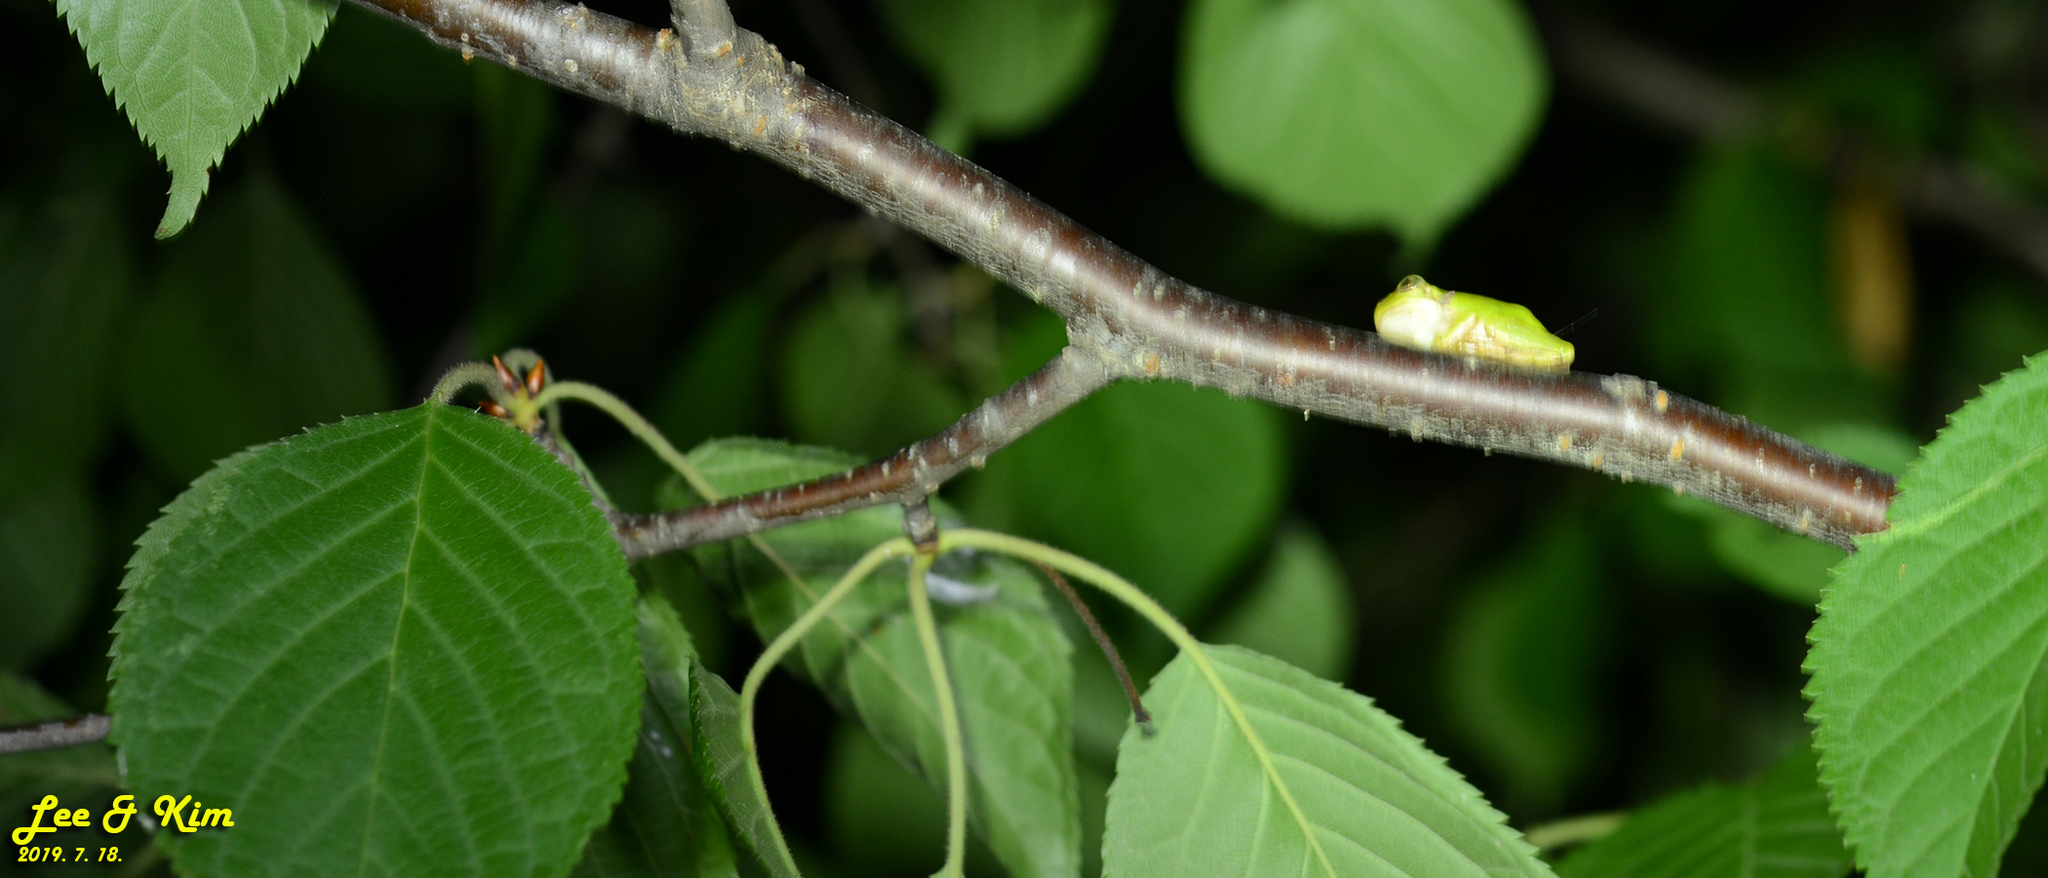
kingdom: Animalia
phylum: Chordata
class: Amphibia
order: Anura
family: Hylidae
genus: Dryophytes
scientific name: Dryophytes japonicus
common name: Japanese treefrog
